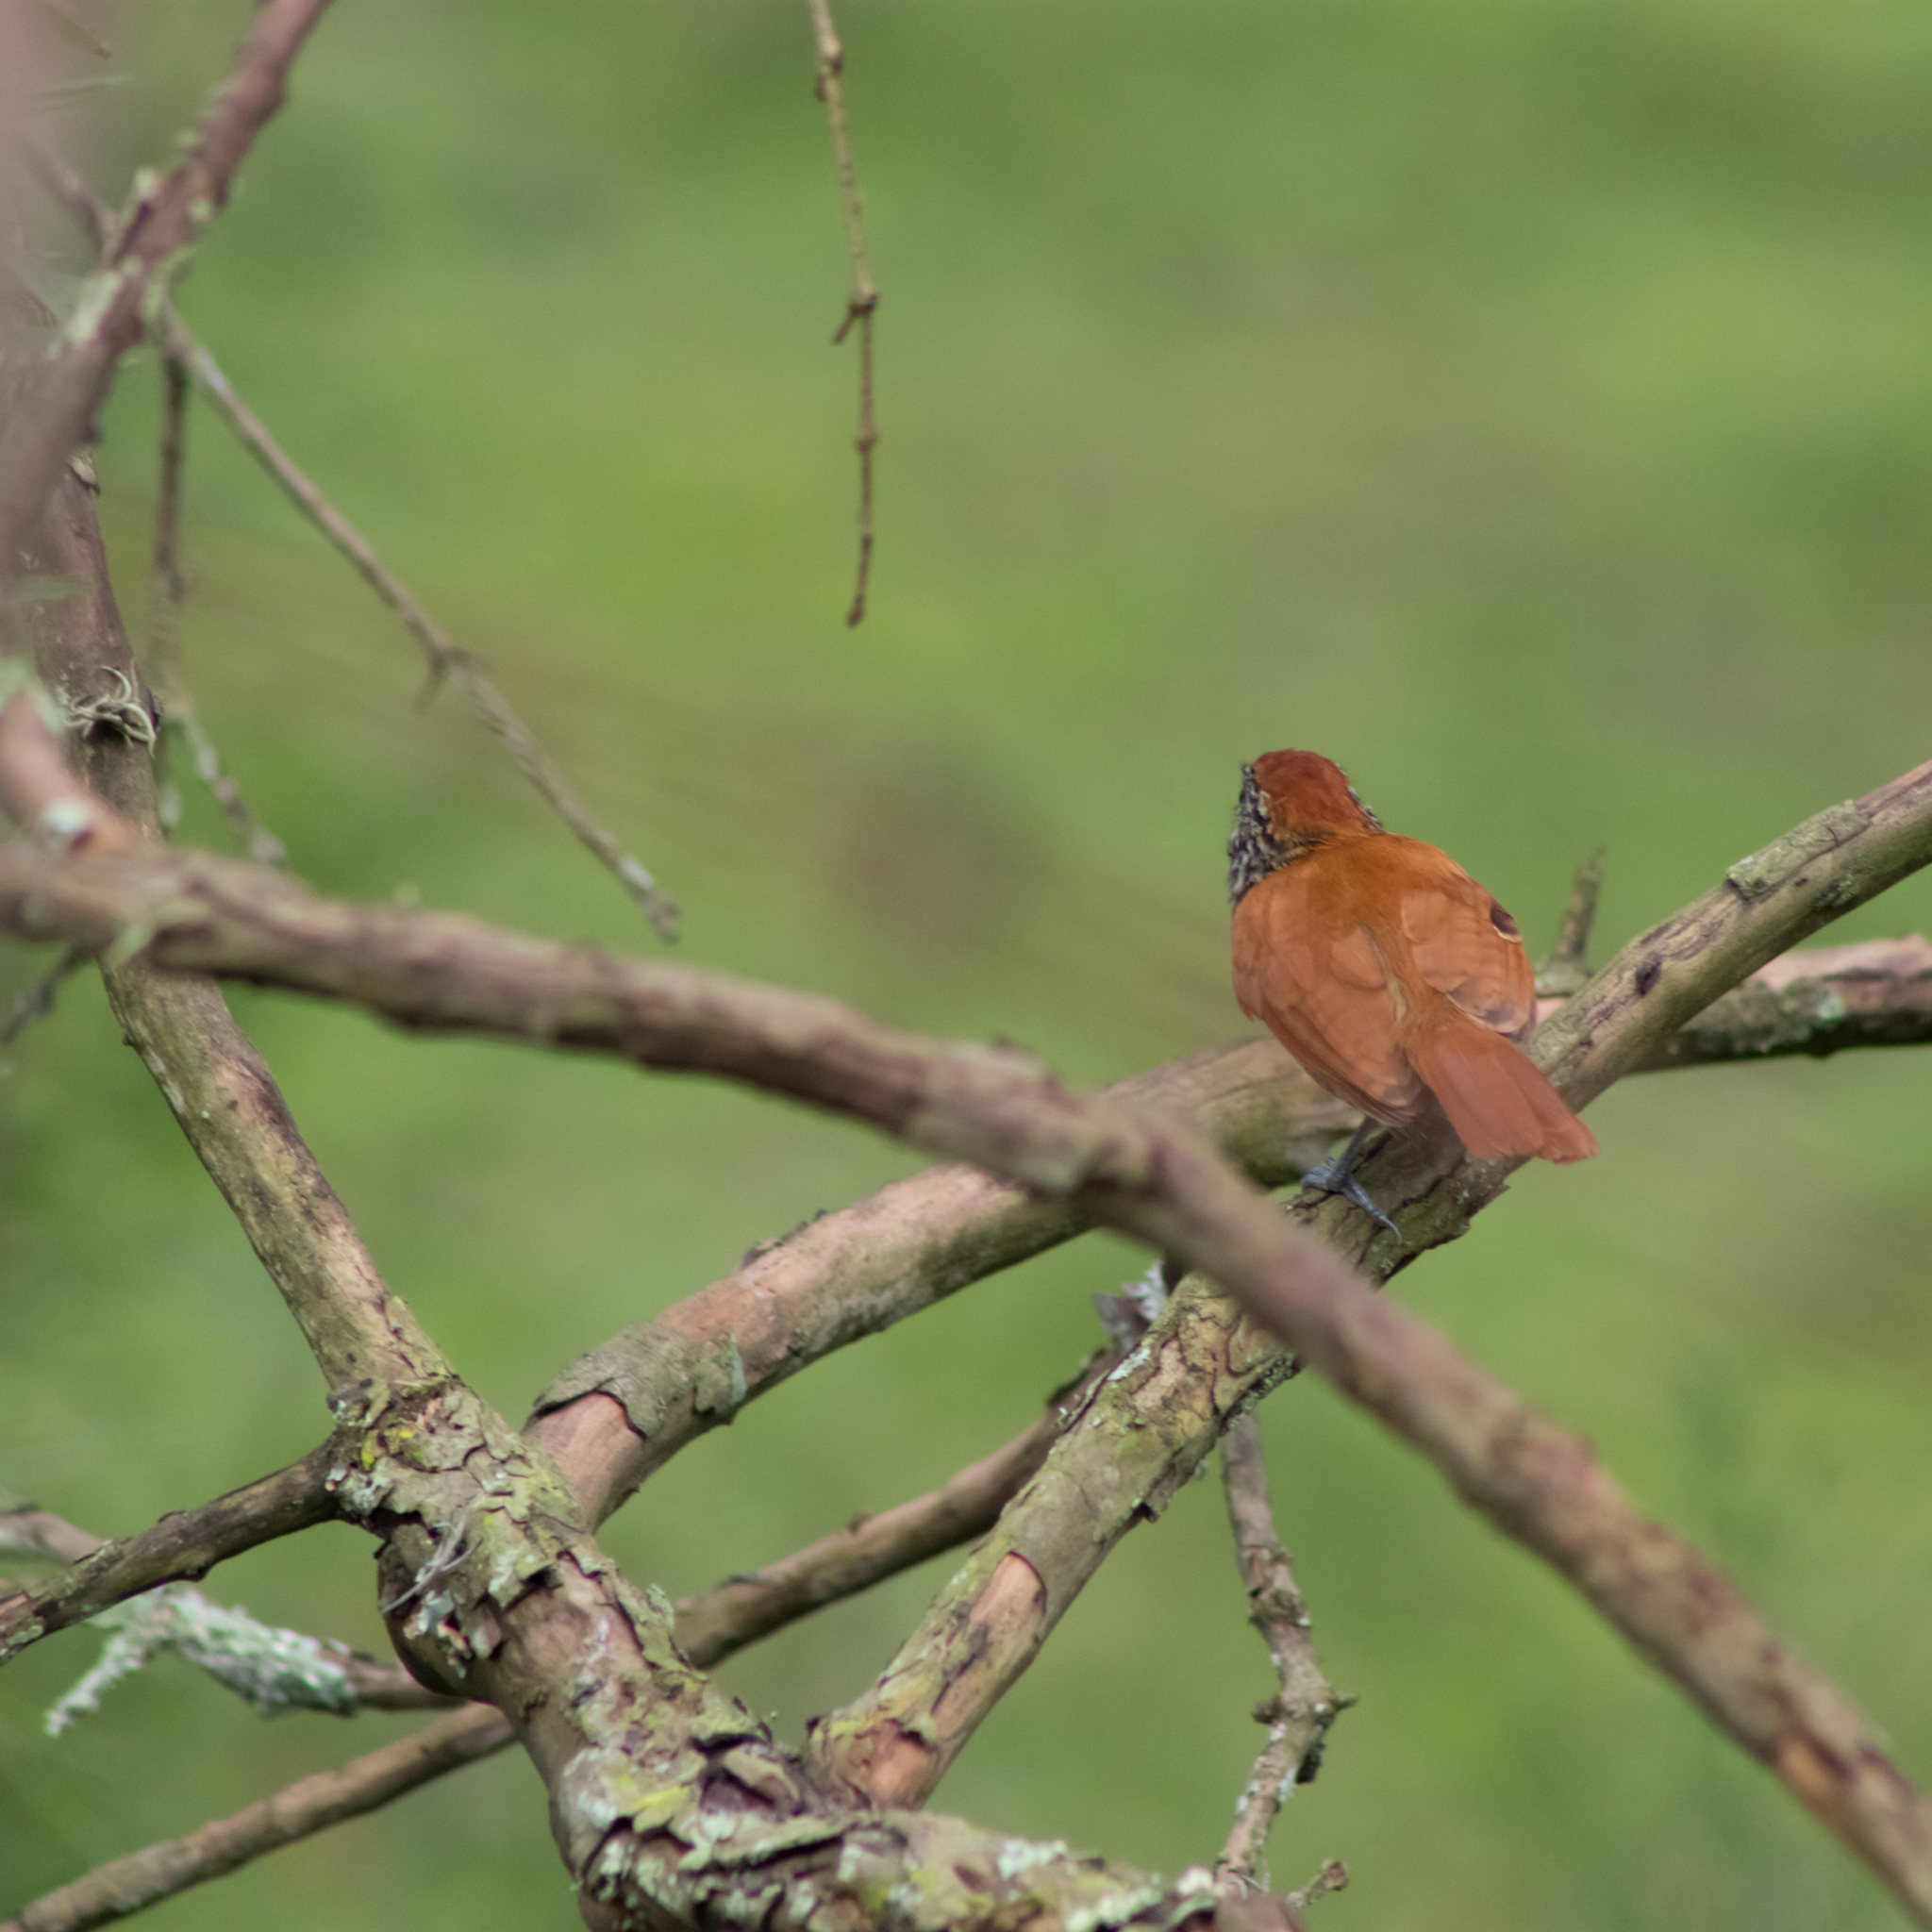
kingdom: Animalia
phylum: Chordata
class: Aves
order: Passeriformes
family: Thamnophilidae
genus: Thamnophilus
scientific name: Thamnophilus multistriatus
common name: Bar-crested antshrike
